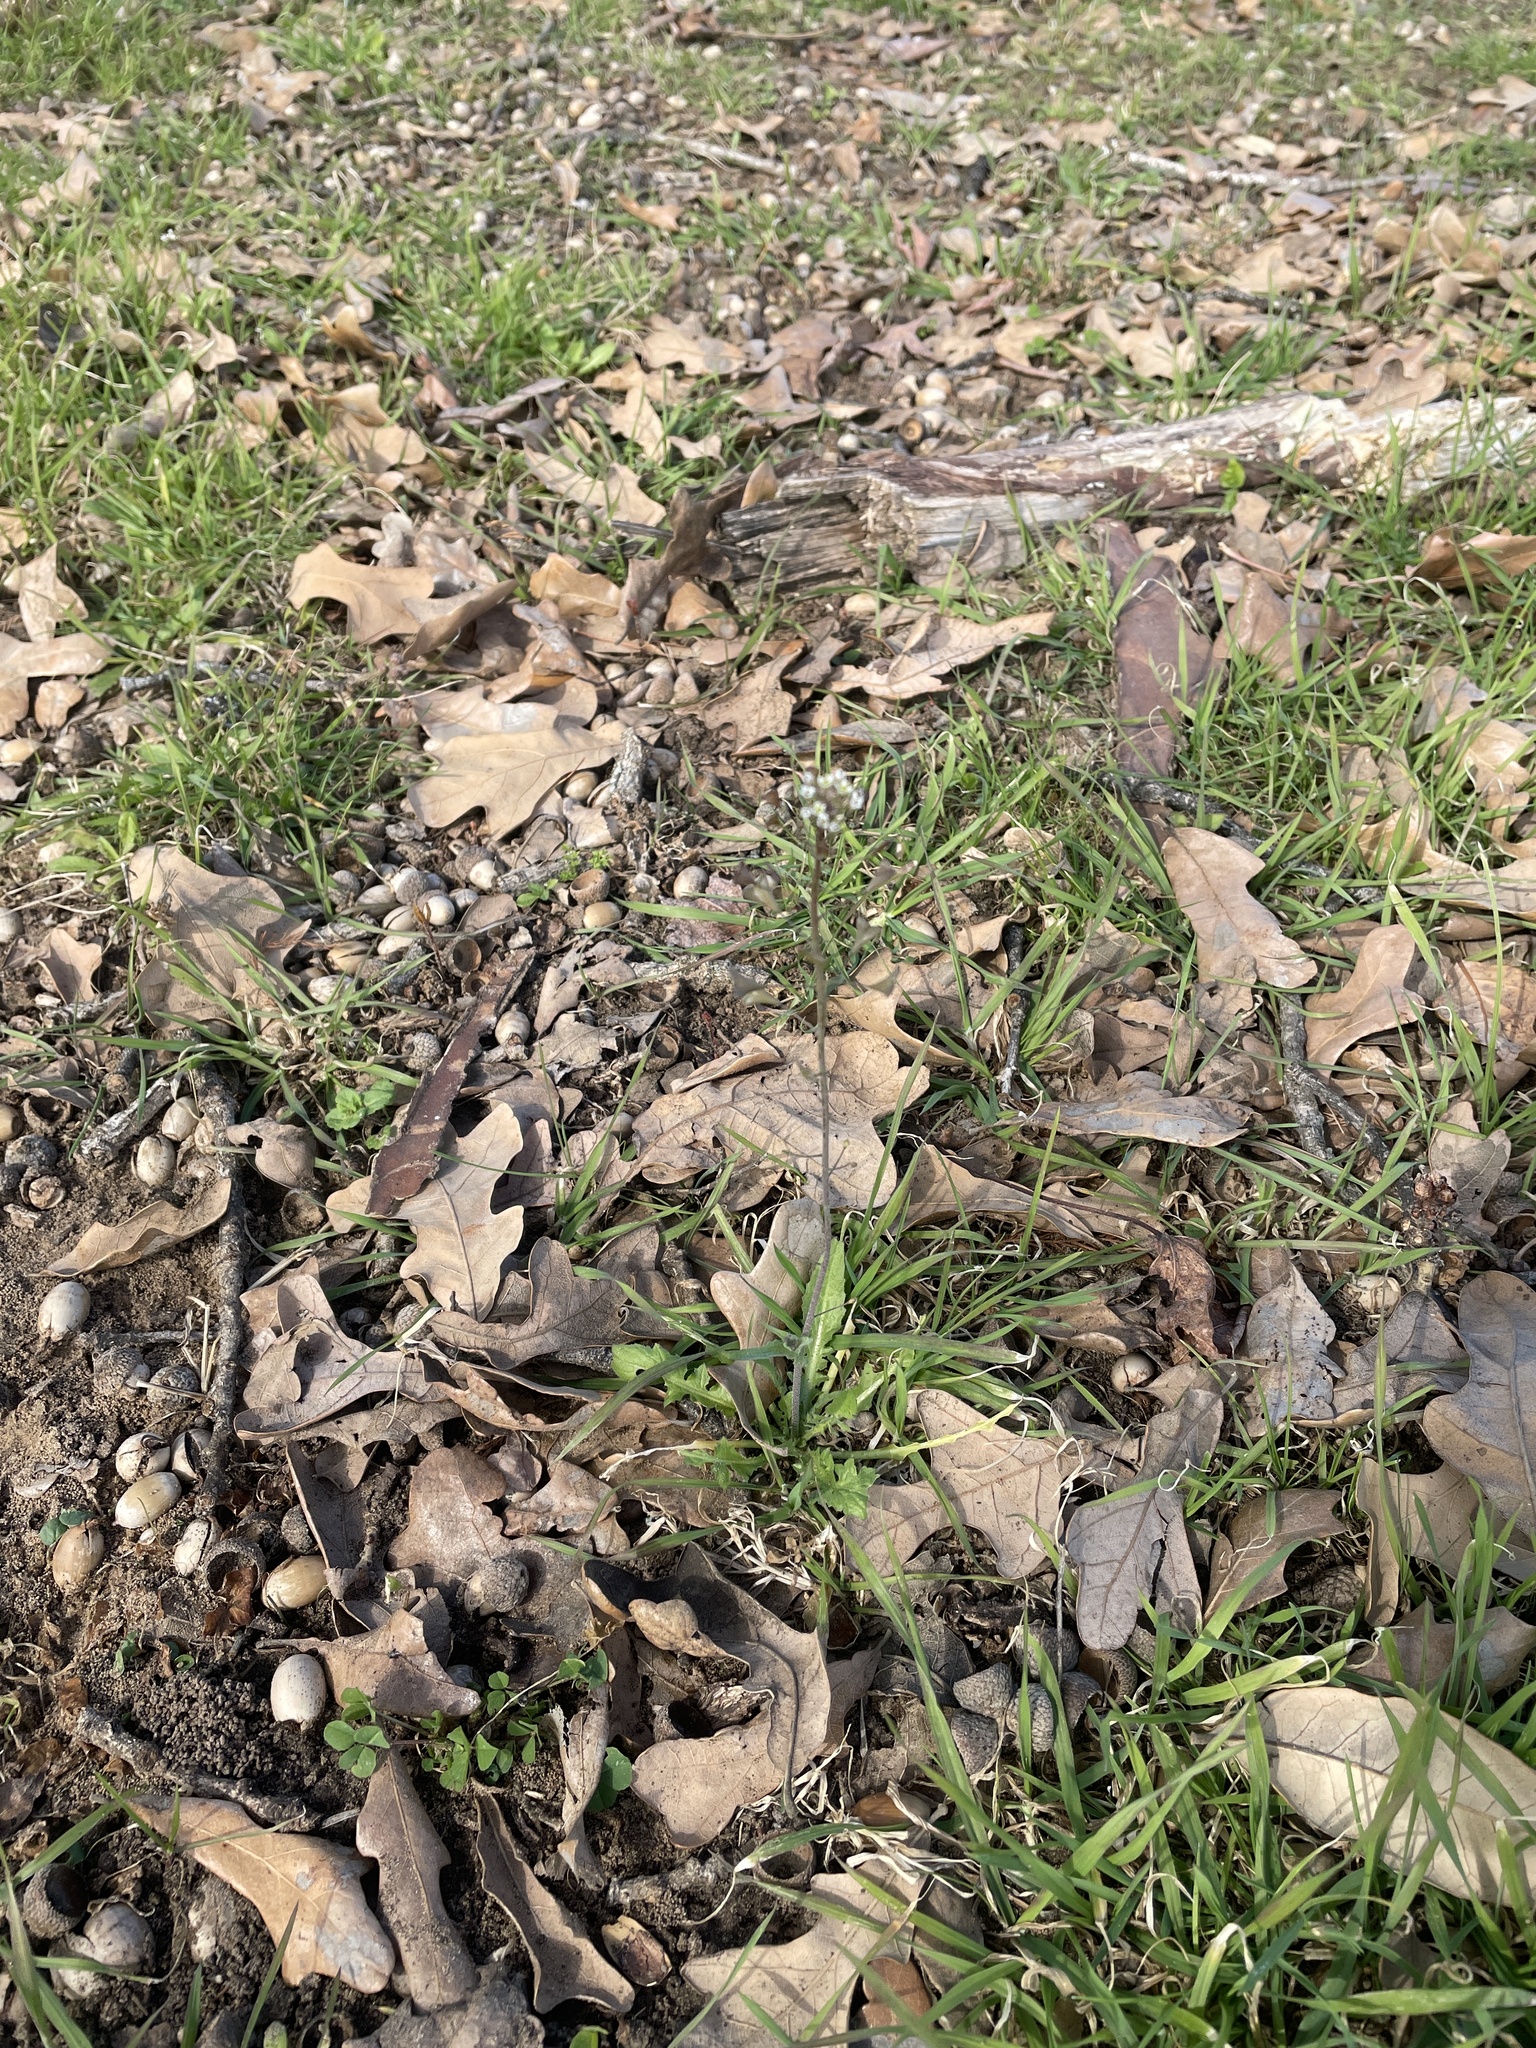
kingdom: Plantae
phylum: Tracheophyta
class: Magnoliopsida
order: Brassicales
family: Brassicaceae
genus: Capsella
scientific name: Capsella bursa-pastoris
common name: Shepherd's purse
